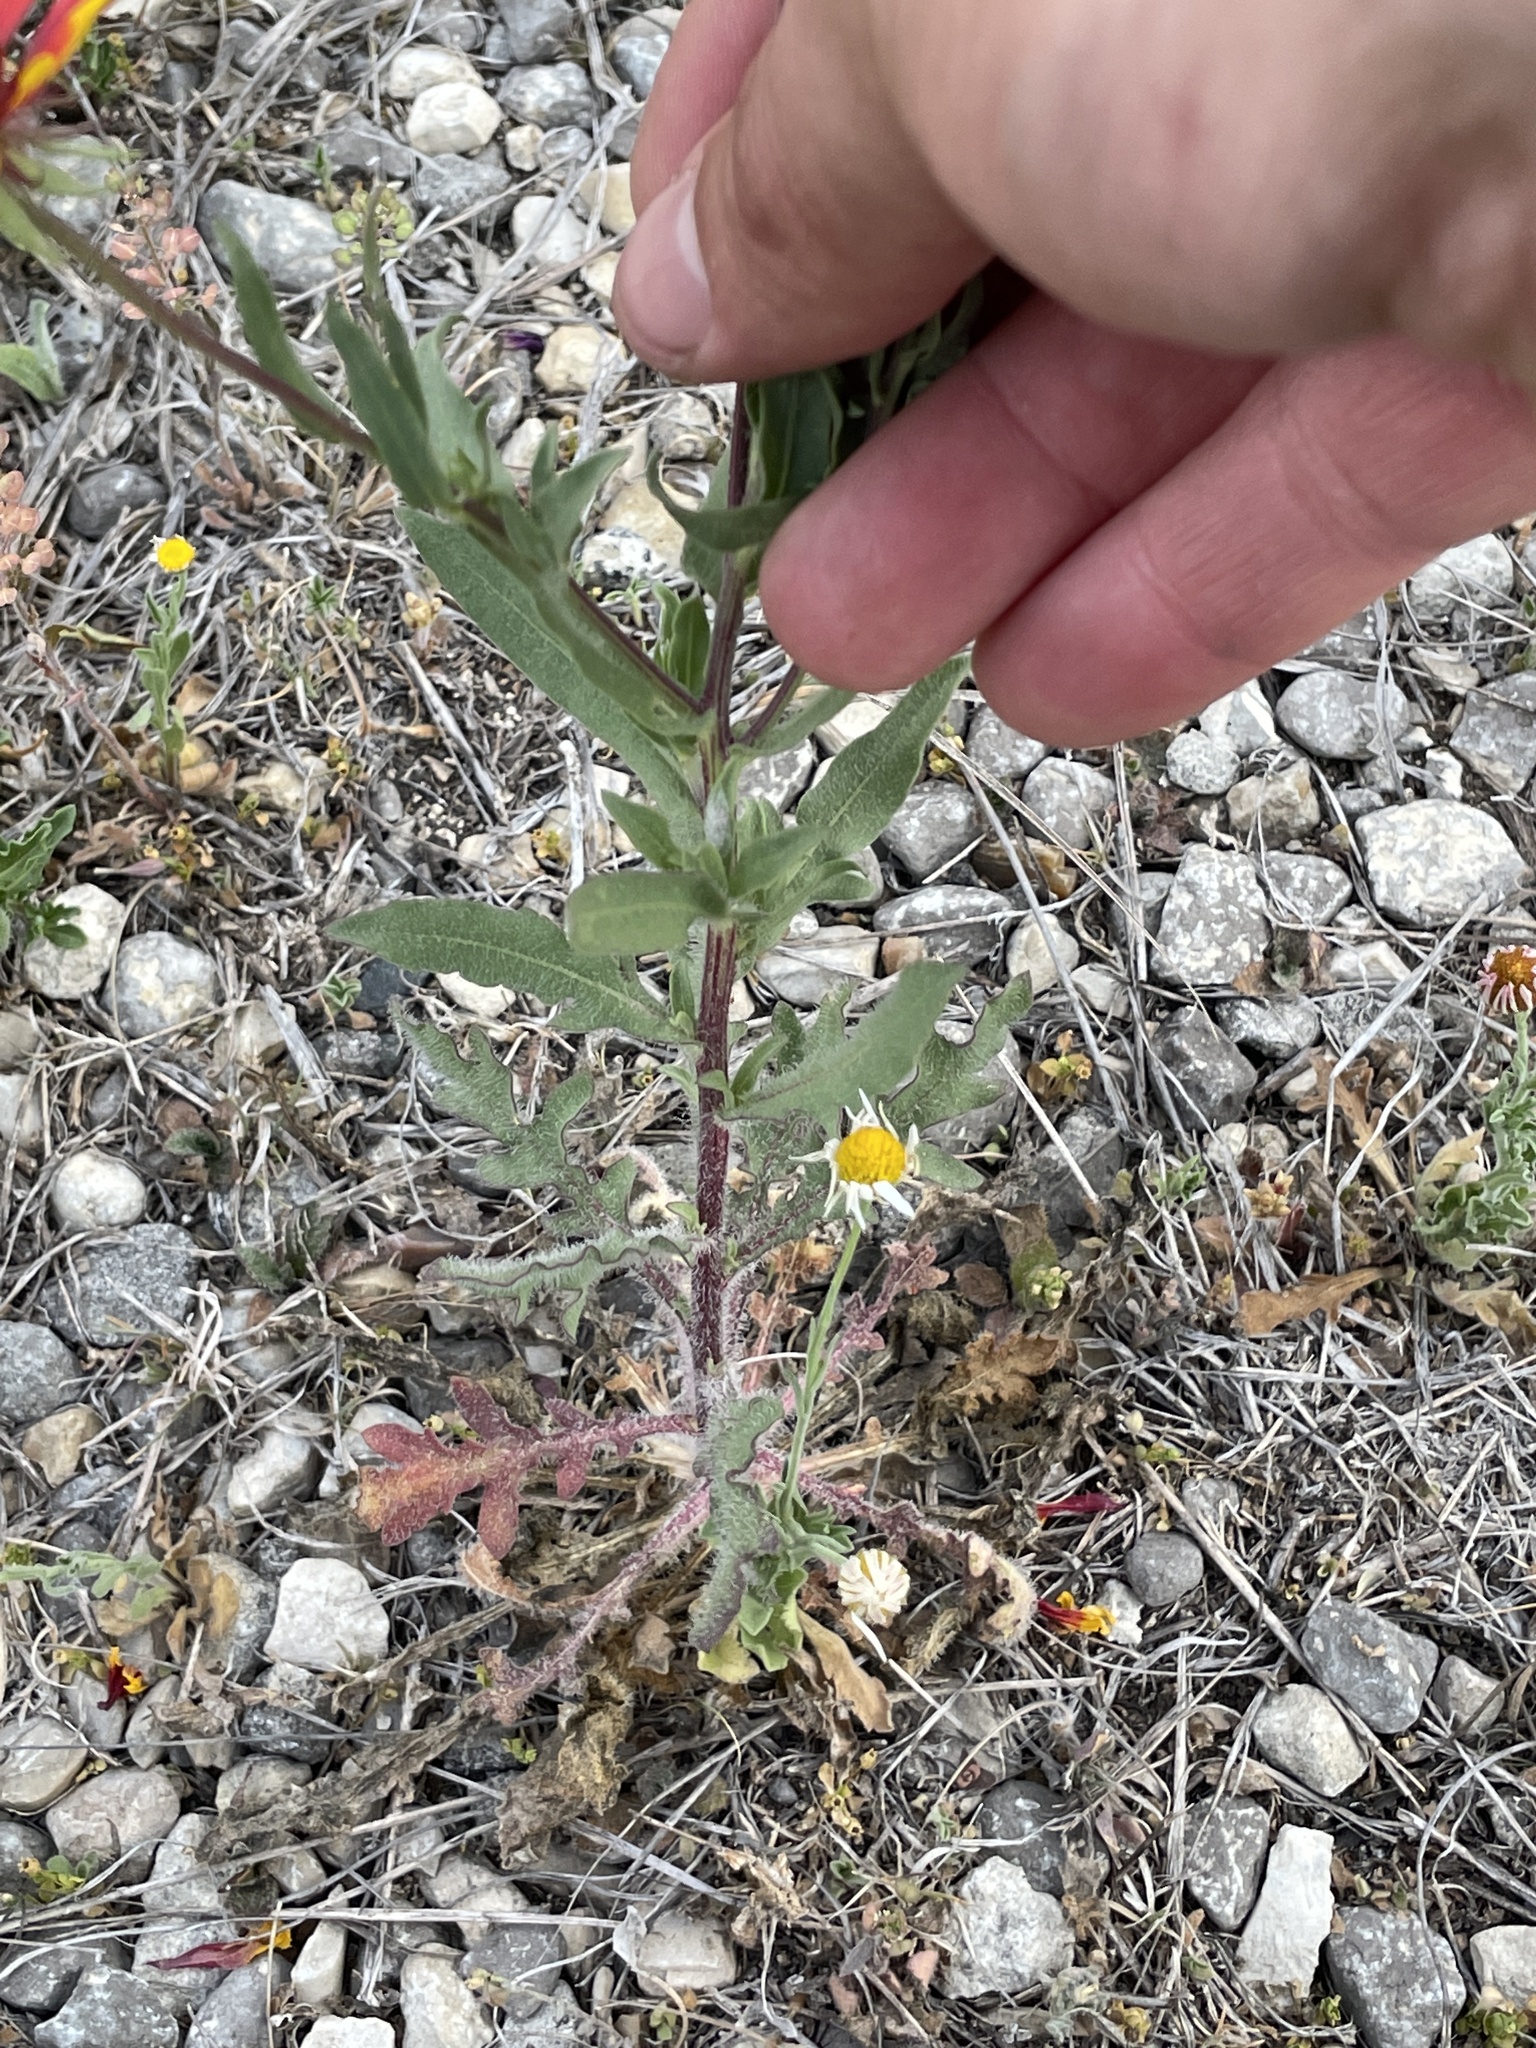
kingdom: Plantae
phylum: Tracheophyta
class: Magnoliopsida
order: Asterales
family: Asteraceae
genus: Gaillardia
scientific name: Gaillardia pulchella
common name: Firewheel
